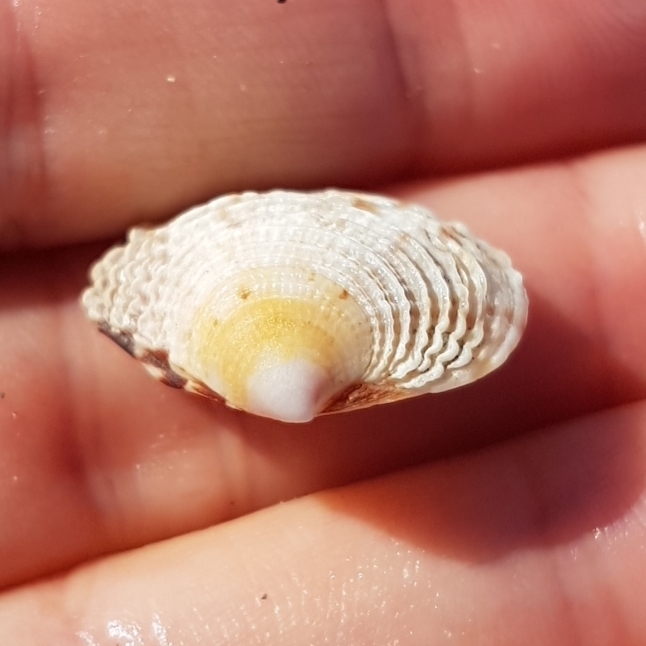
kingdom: Animalia
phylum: Mollusca
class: Bivalvia
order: Venerida
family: Veneridae
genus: Venus
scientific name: Venus verrucosa
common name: Warty venus
